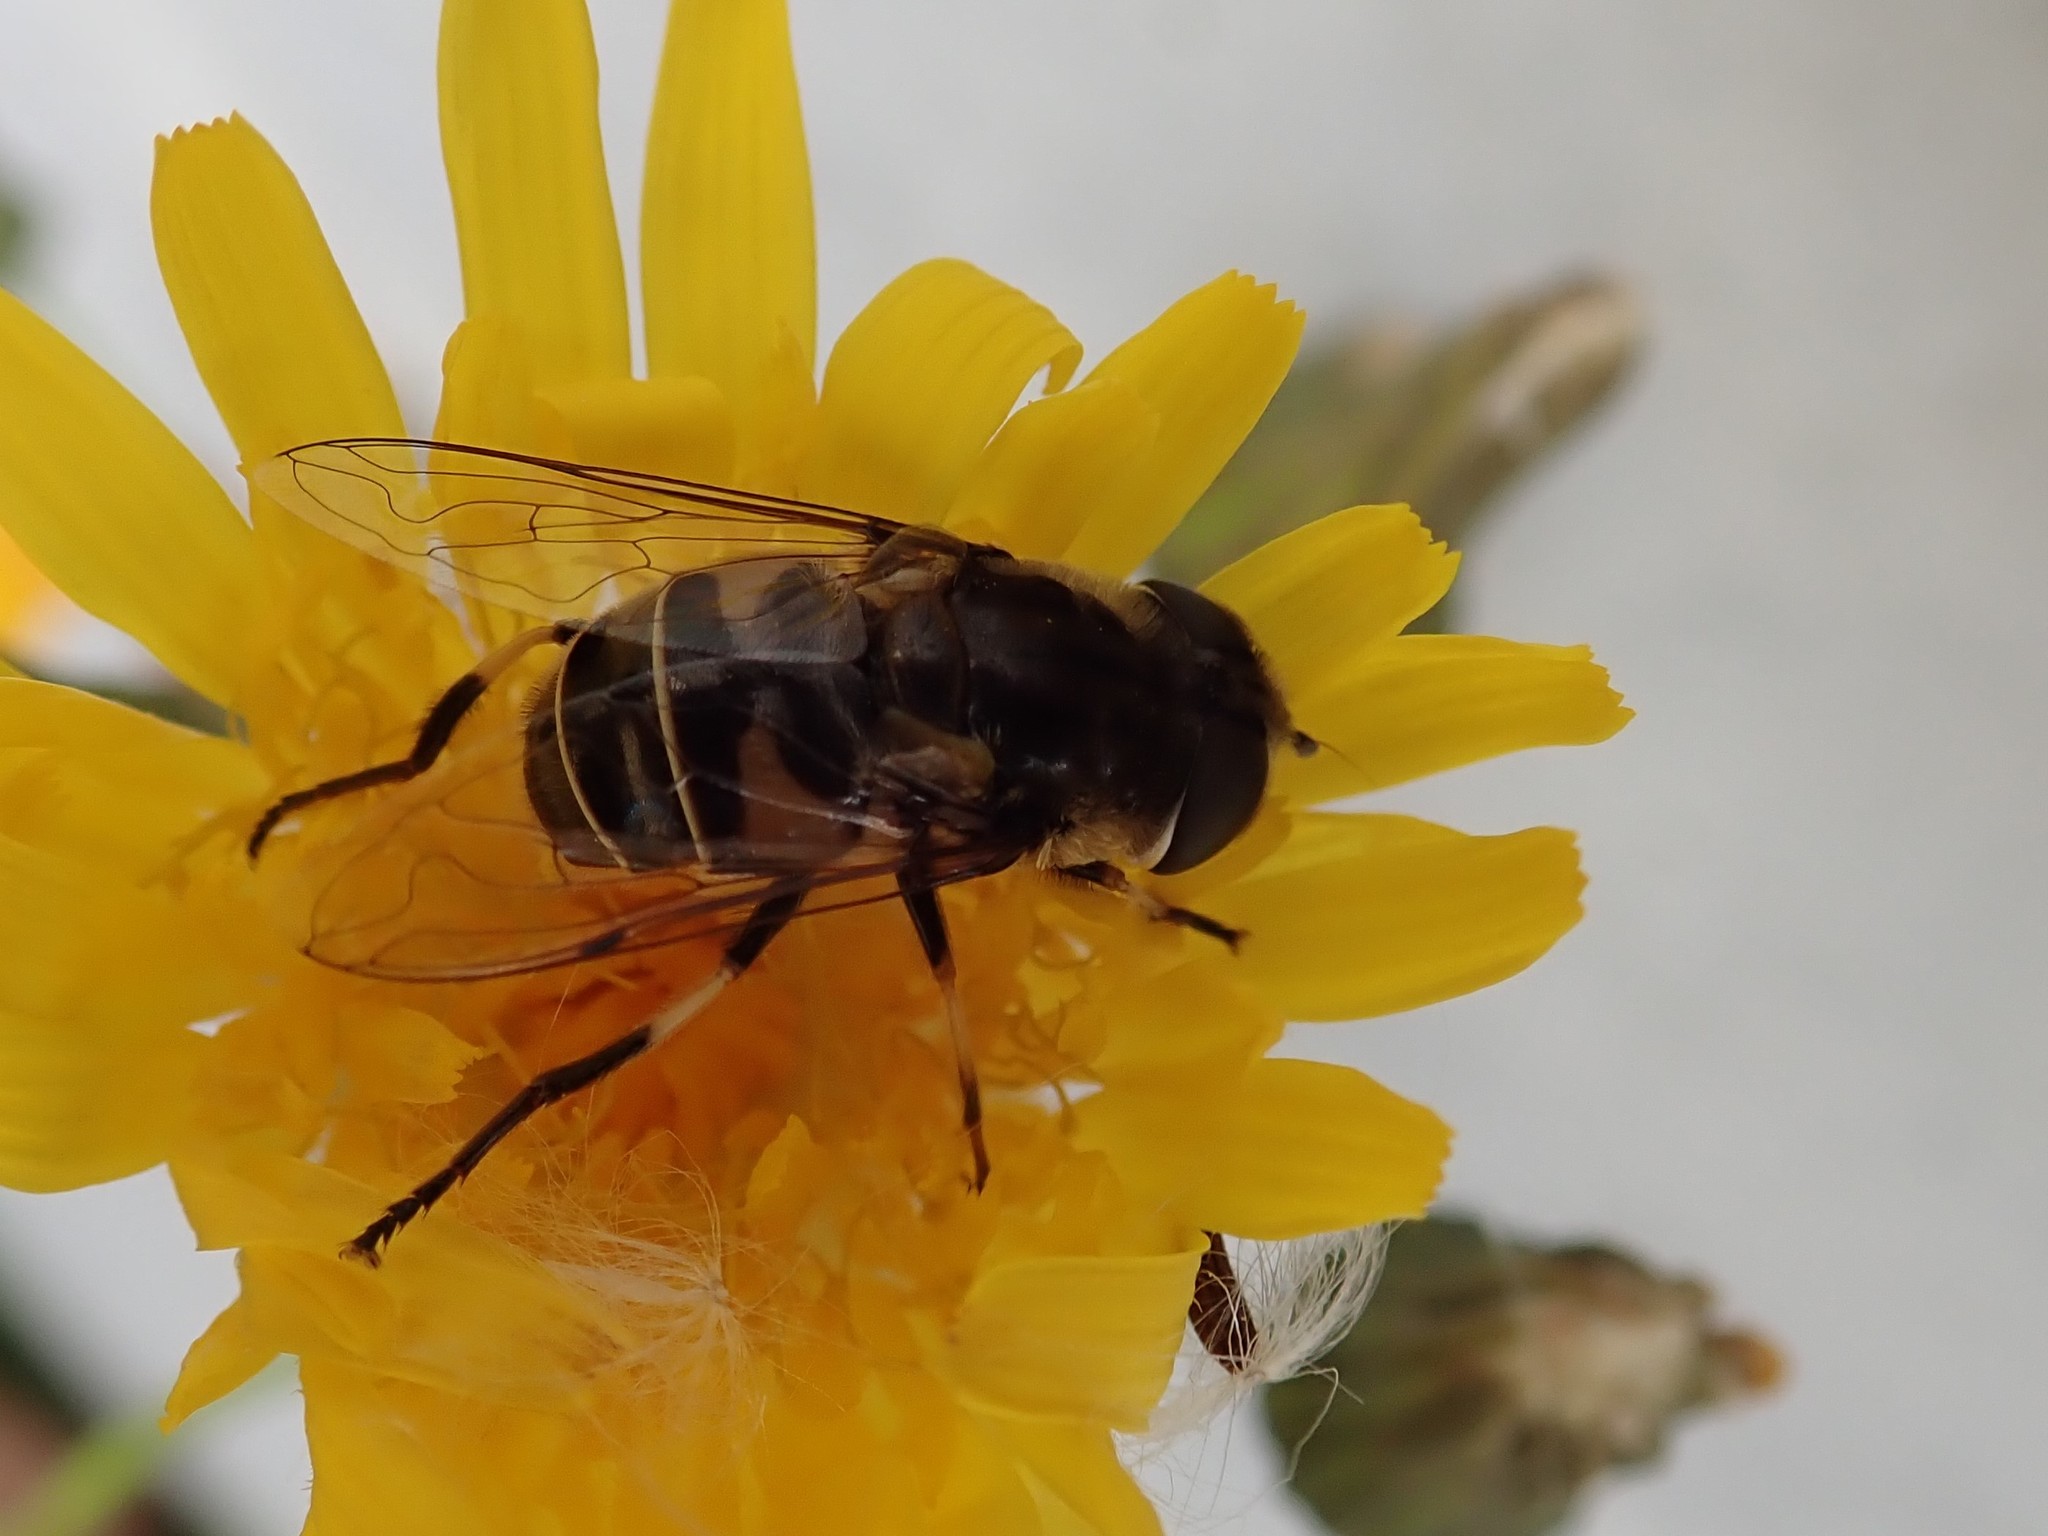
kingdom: Animalia
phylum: Arthropoda
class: Insecta
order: Diptera
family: Syrphidae
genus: Eristalis
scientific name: Eristalis dimidiata
